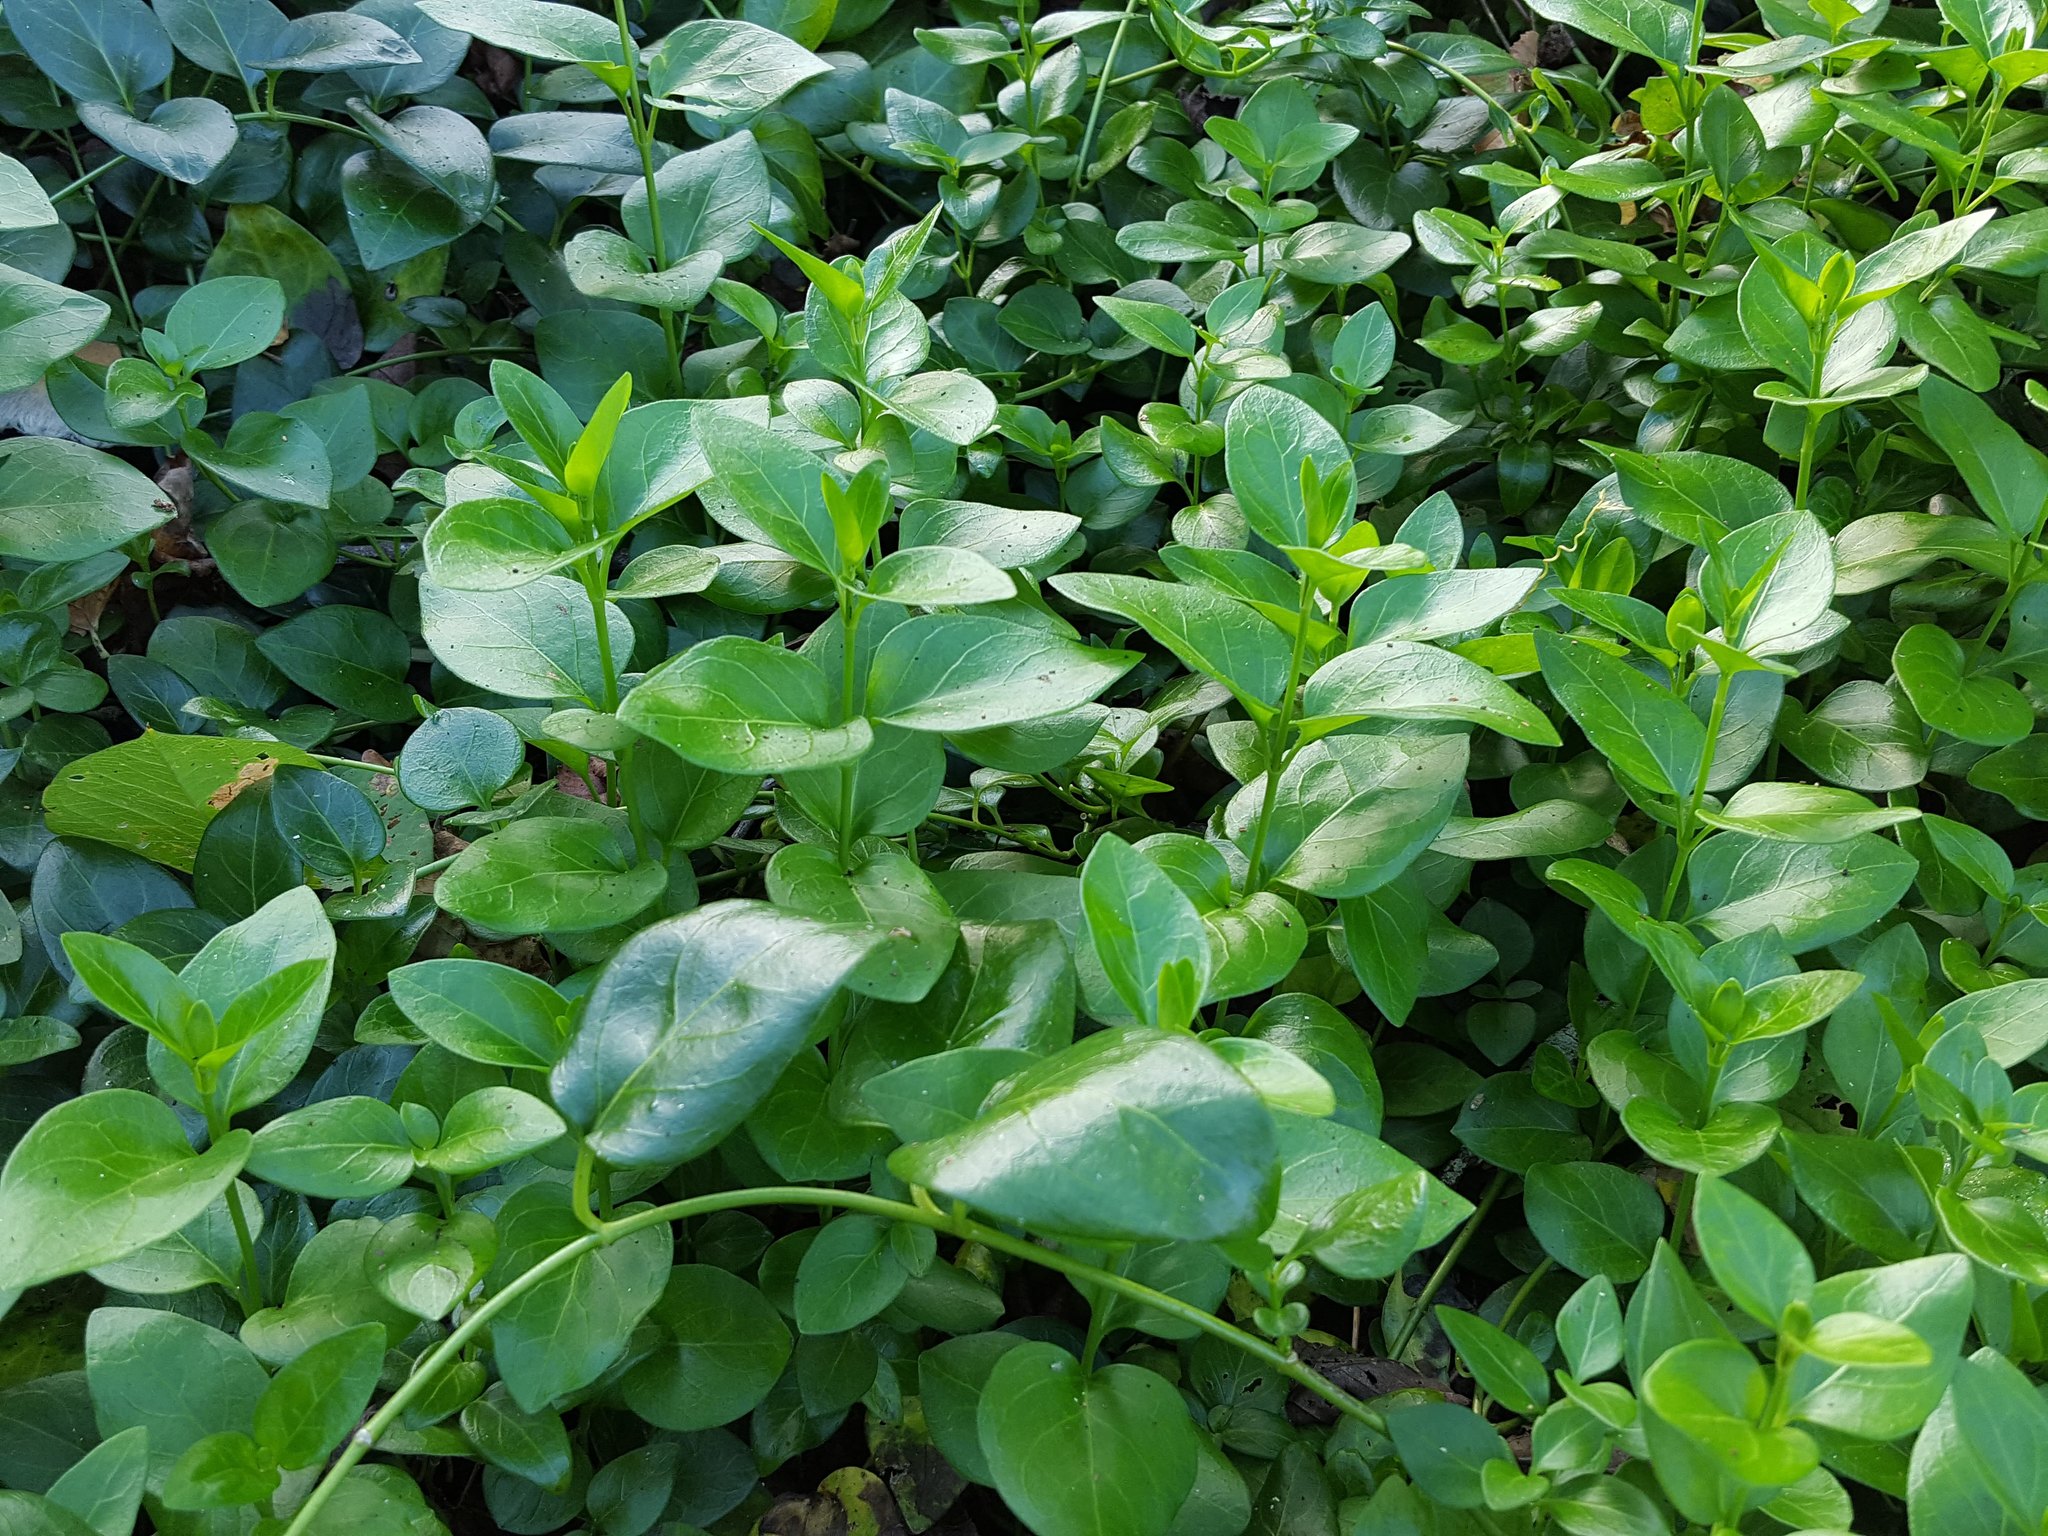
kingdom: Plantae
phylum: Tracheophyta
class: Magnoliopsida
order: Gentianales
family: Apocynaceae
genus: Vinca
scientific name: Vinca major
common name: Greater periwinkle
